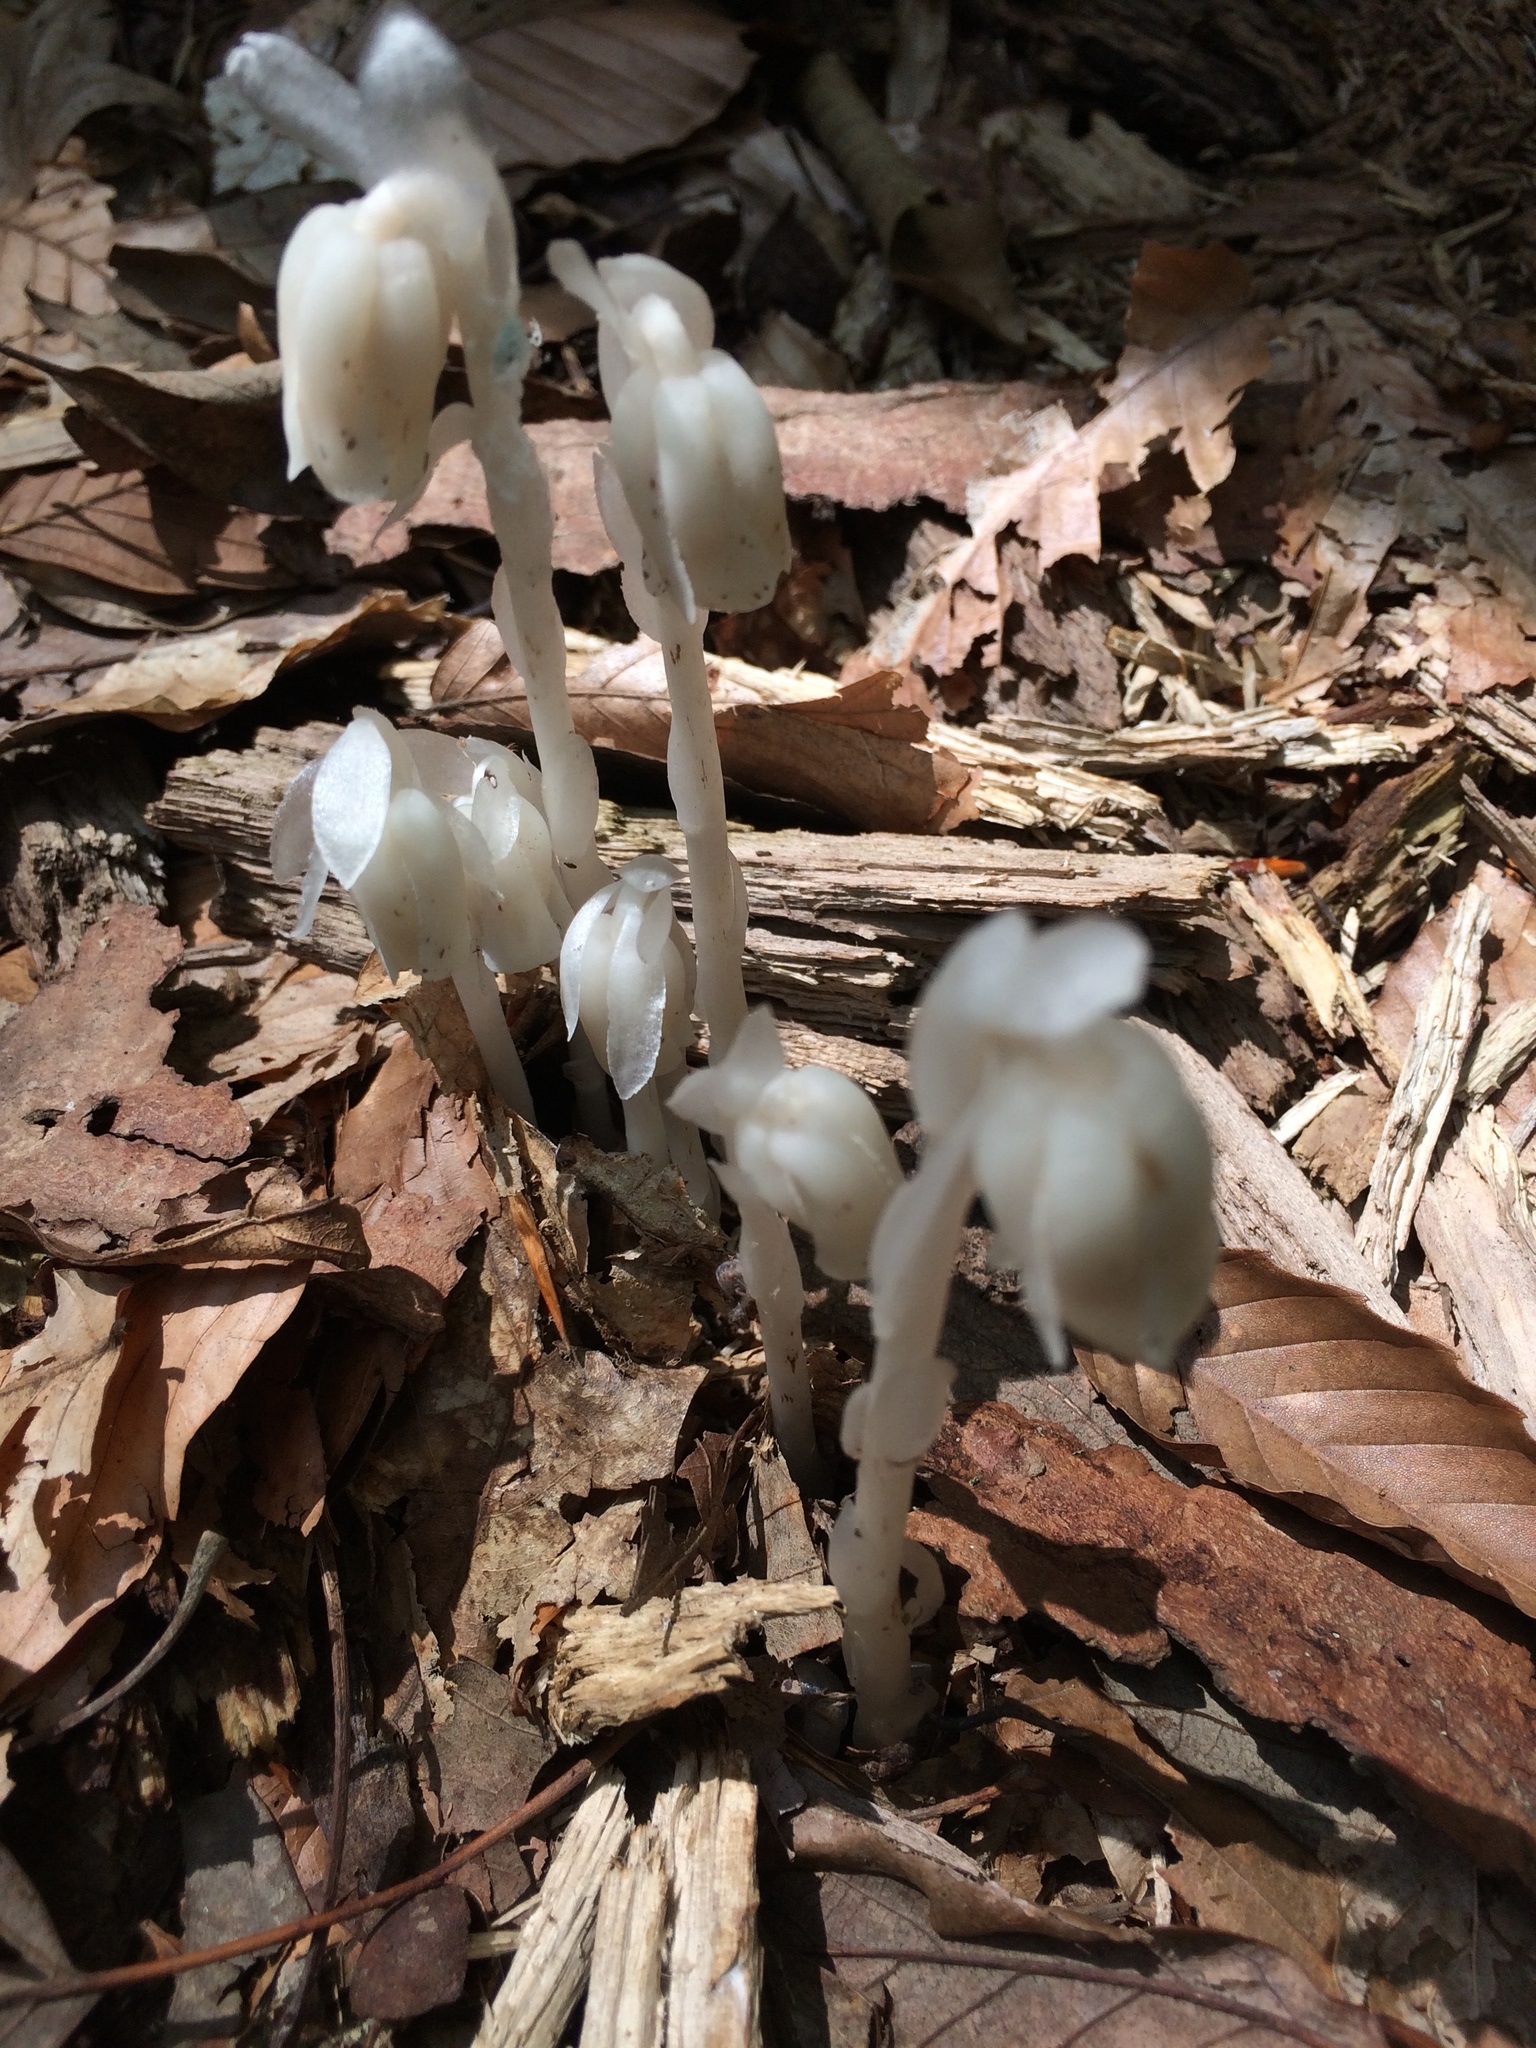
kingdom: Plantae
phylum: Tracheophyta
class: Magnoliopsida
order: Ericales
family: Ericaceae
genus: Monotropa
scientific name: Monotropa uniflora
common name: Convulsion root
